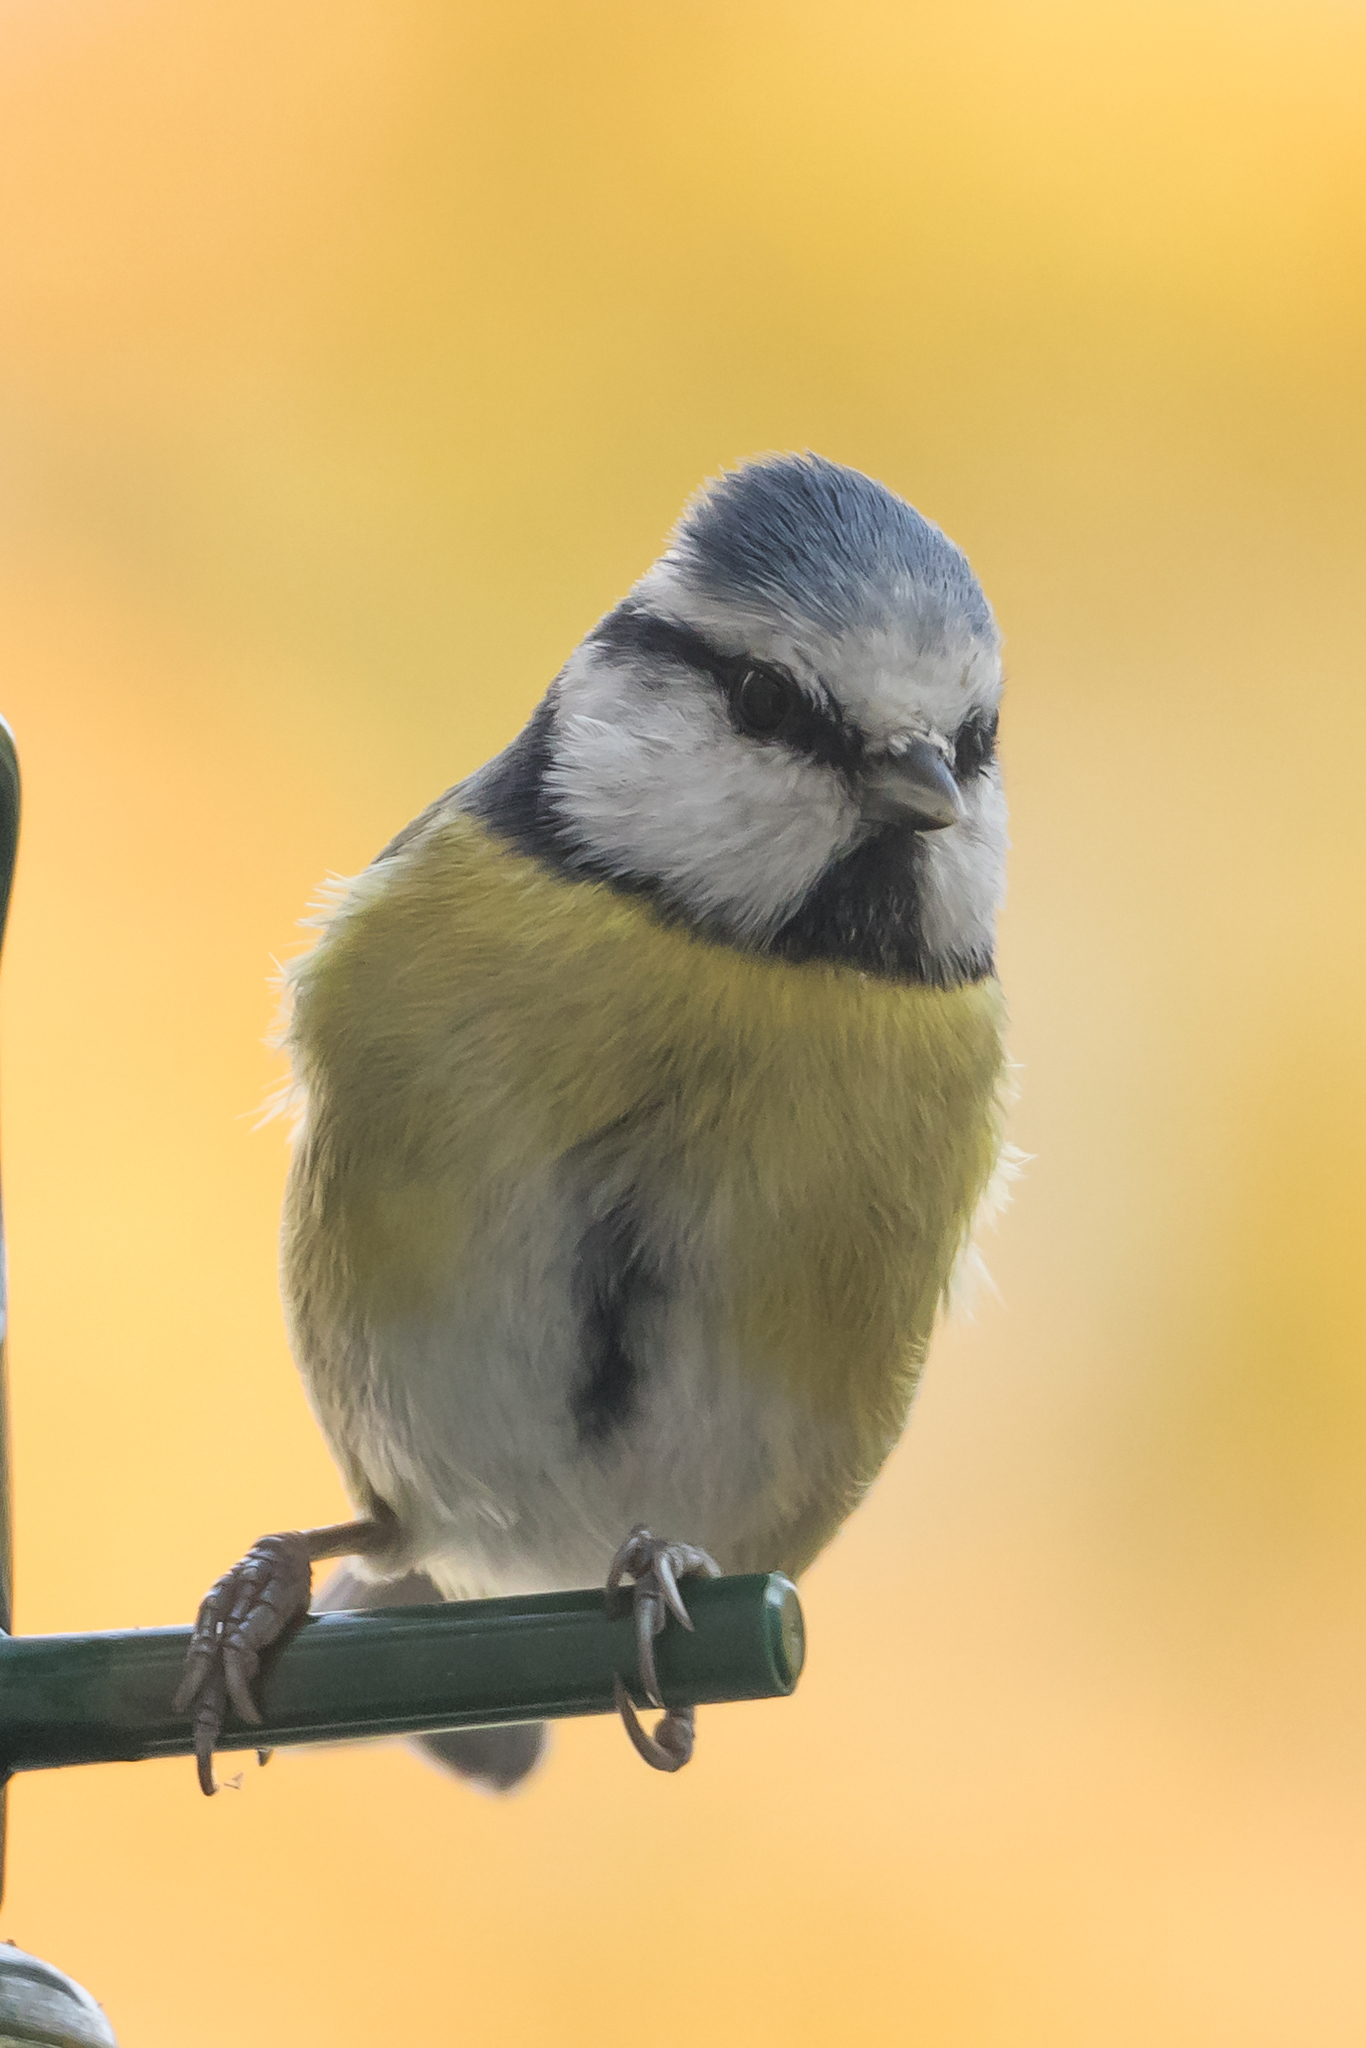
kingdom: Animalia
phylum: Chordata
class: Aves
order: Passeriformes
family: Paridae
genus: Cyanistes
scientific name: Cyanistes caeruleus
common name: Eurasian blue tit
